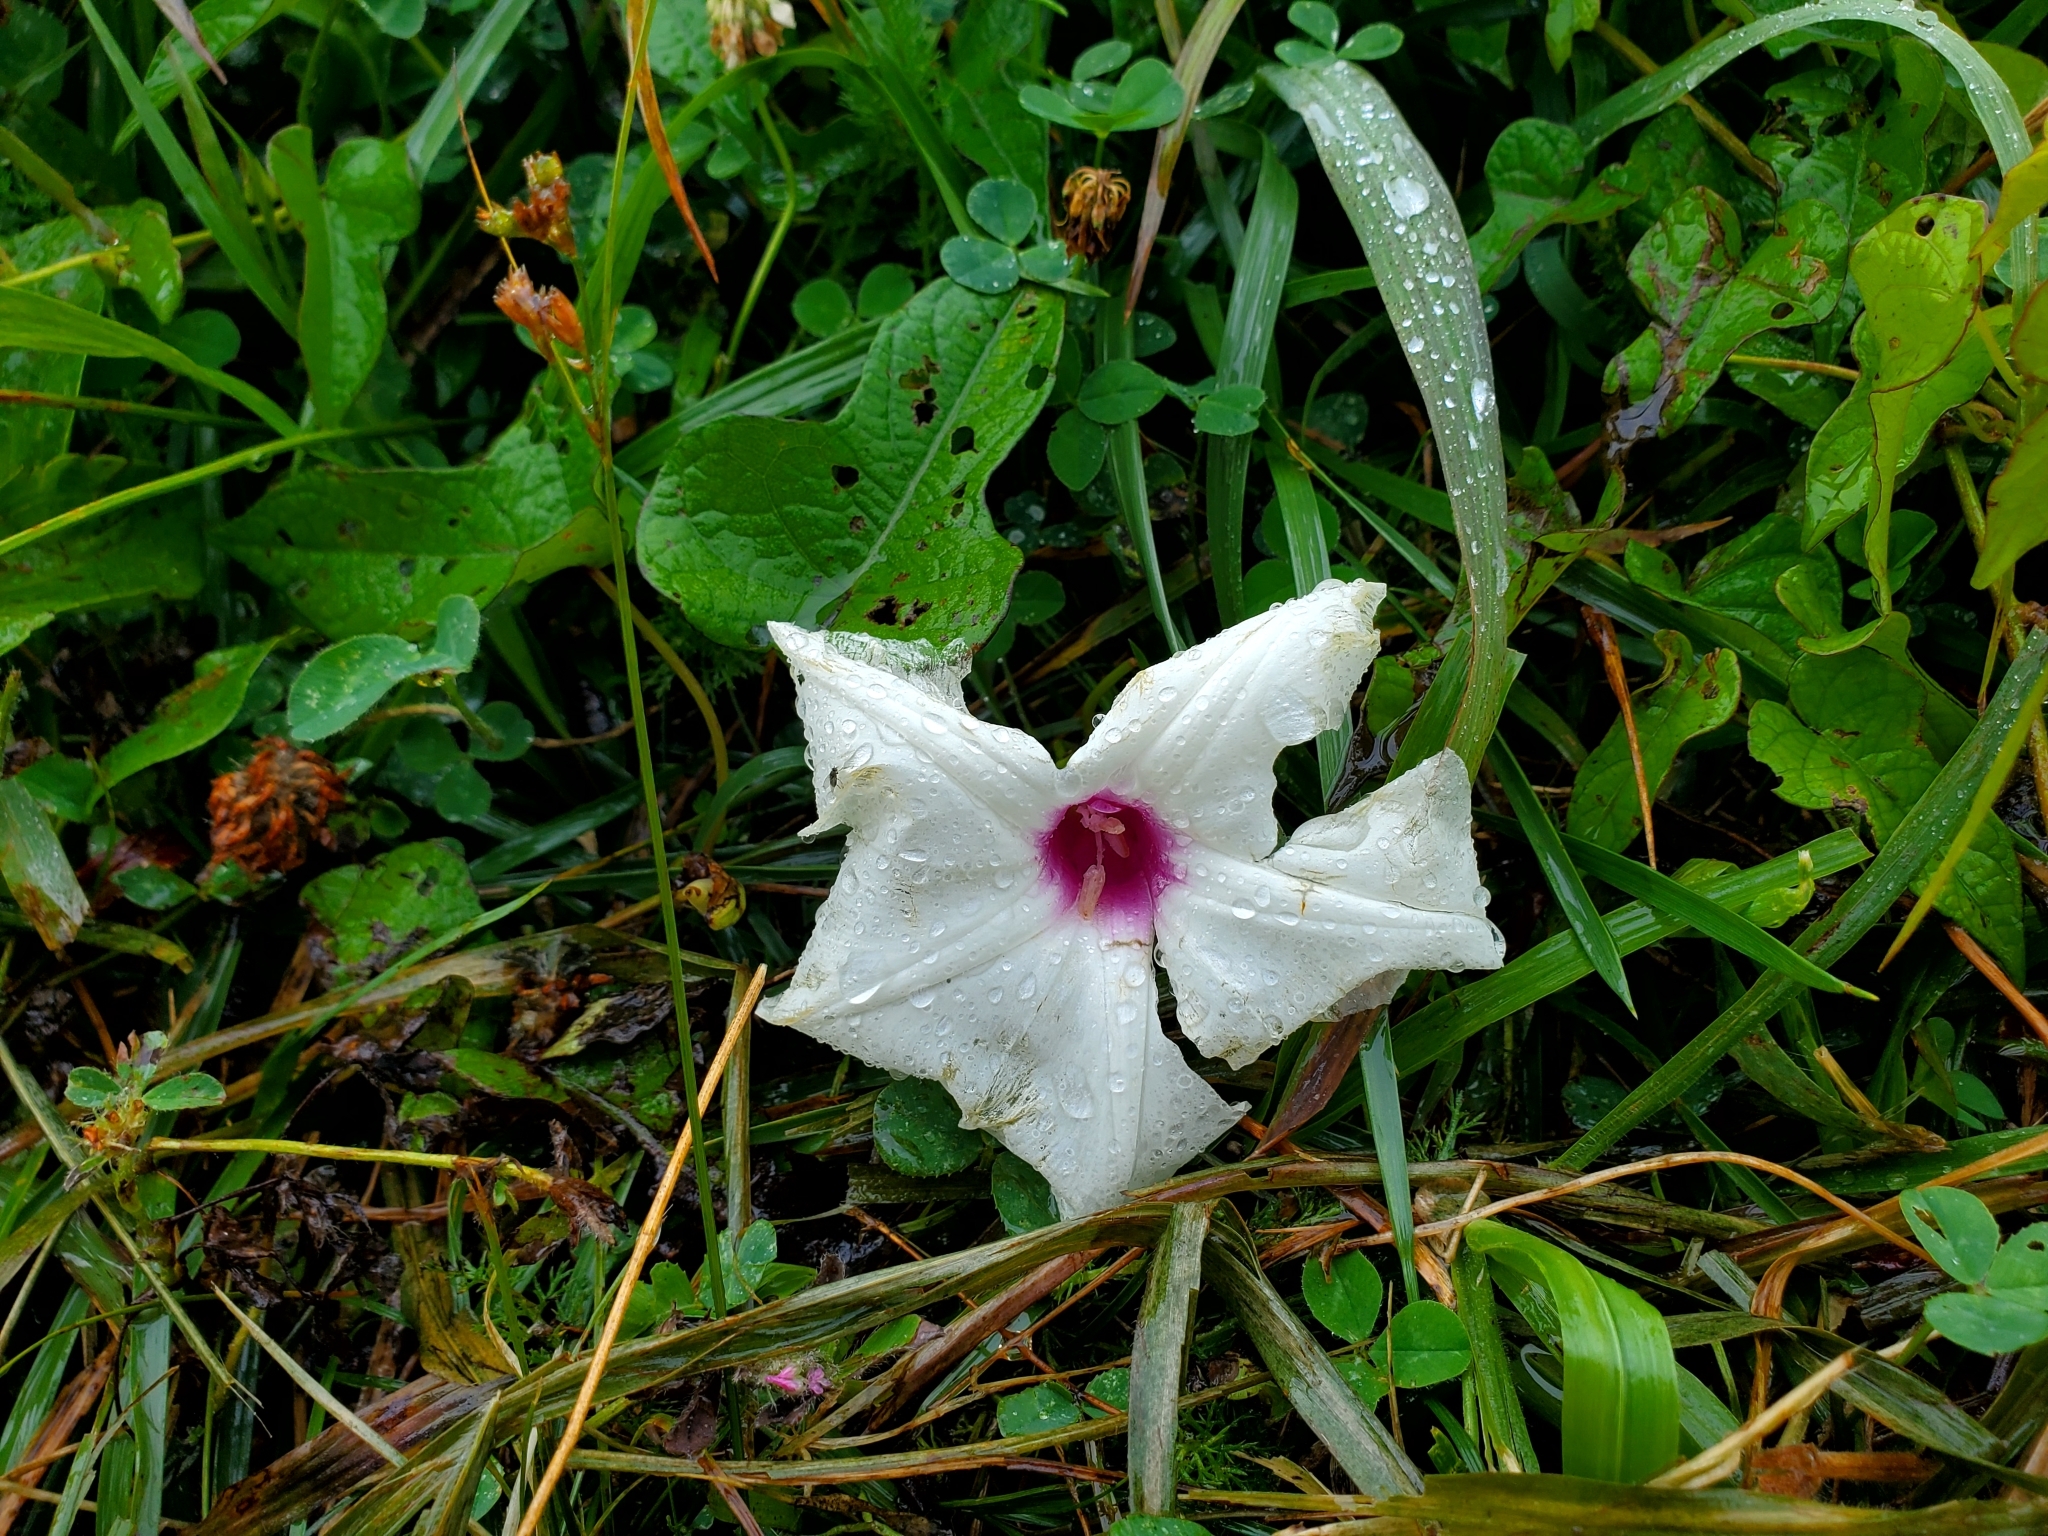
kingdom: Plantae
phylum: Tracheophyta
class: Magnoliopsida
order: Solanales
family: Convolvulaceae
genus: Ipomoea
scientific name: Ipomoea pandurata
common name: Man-of-the-earth
